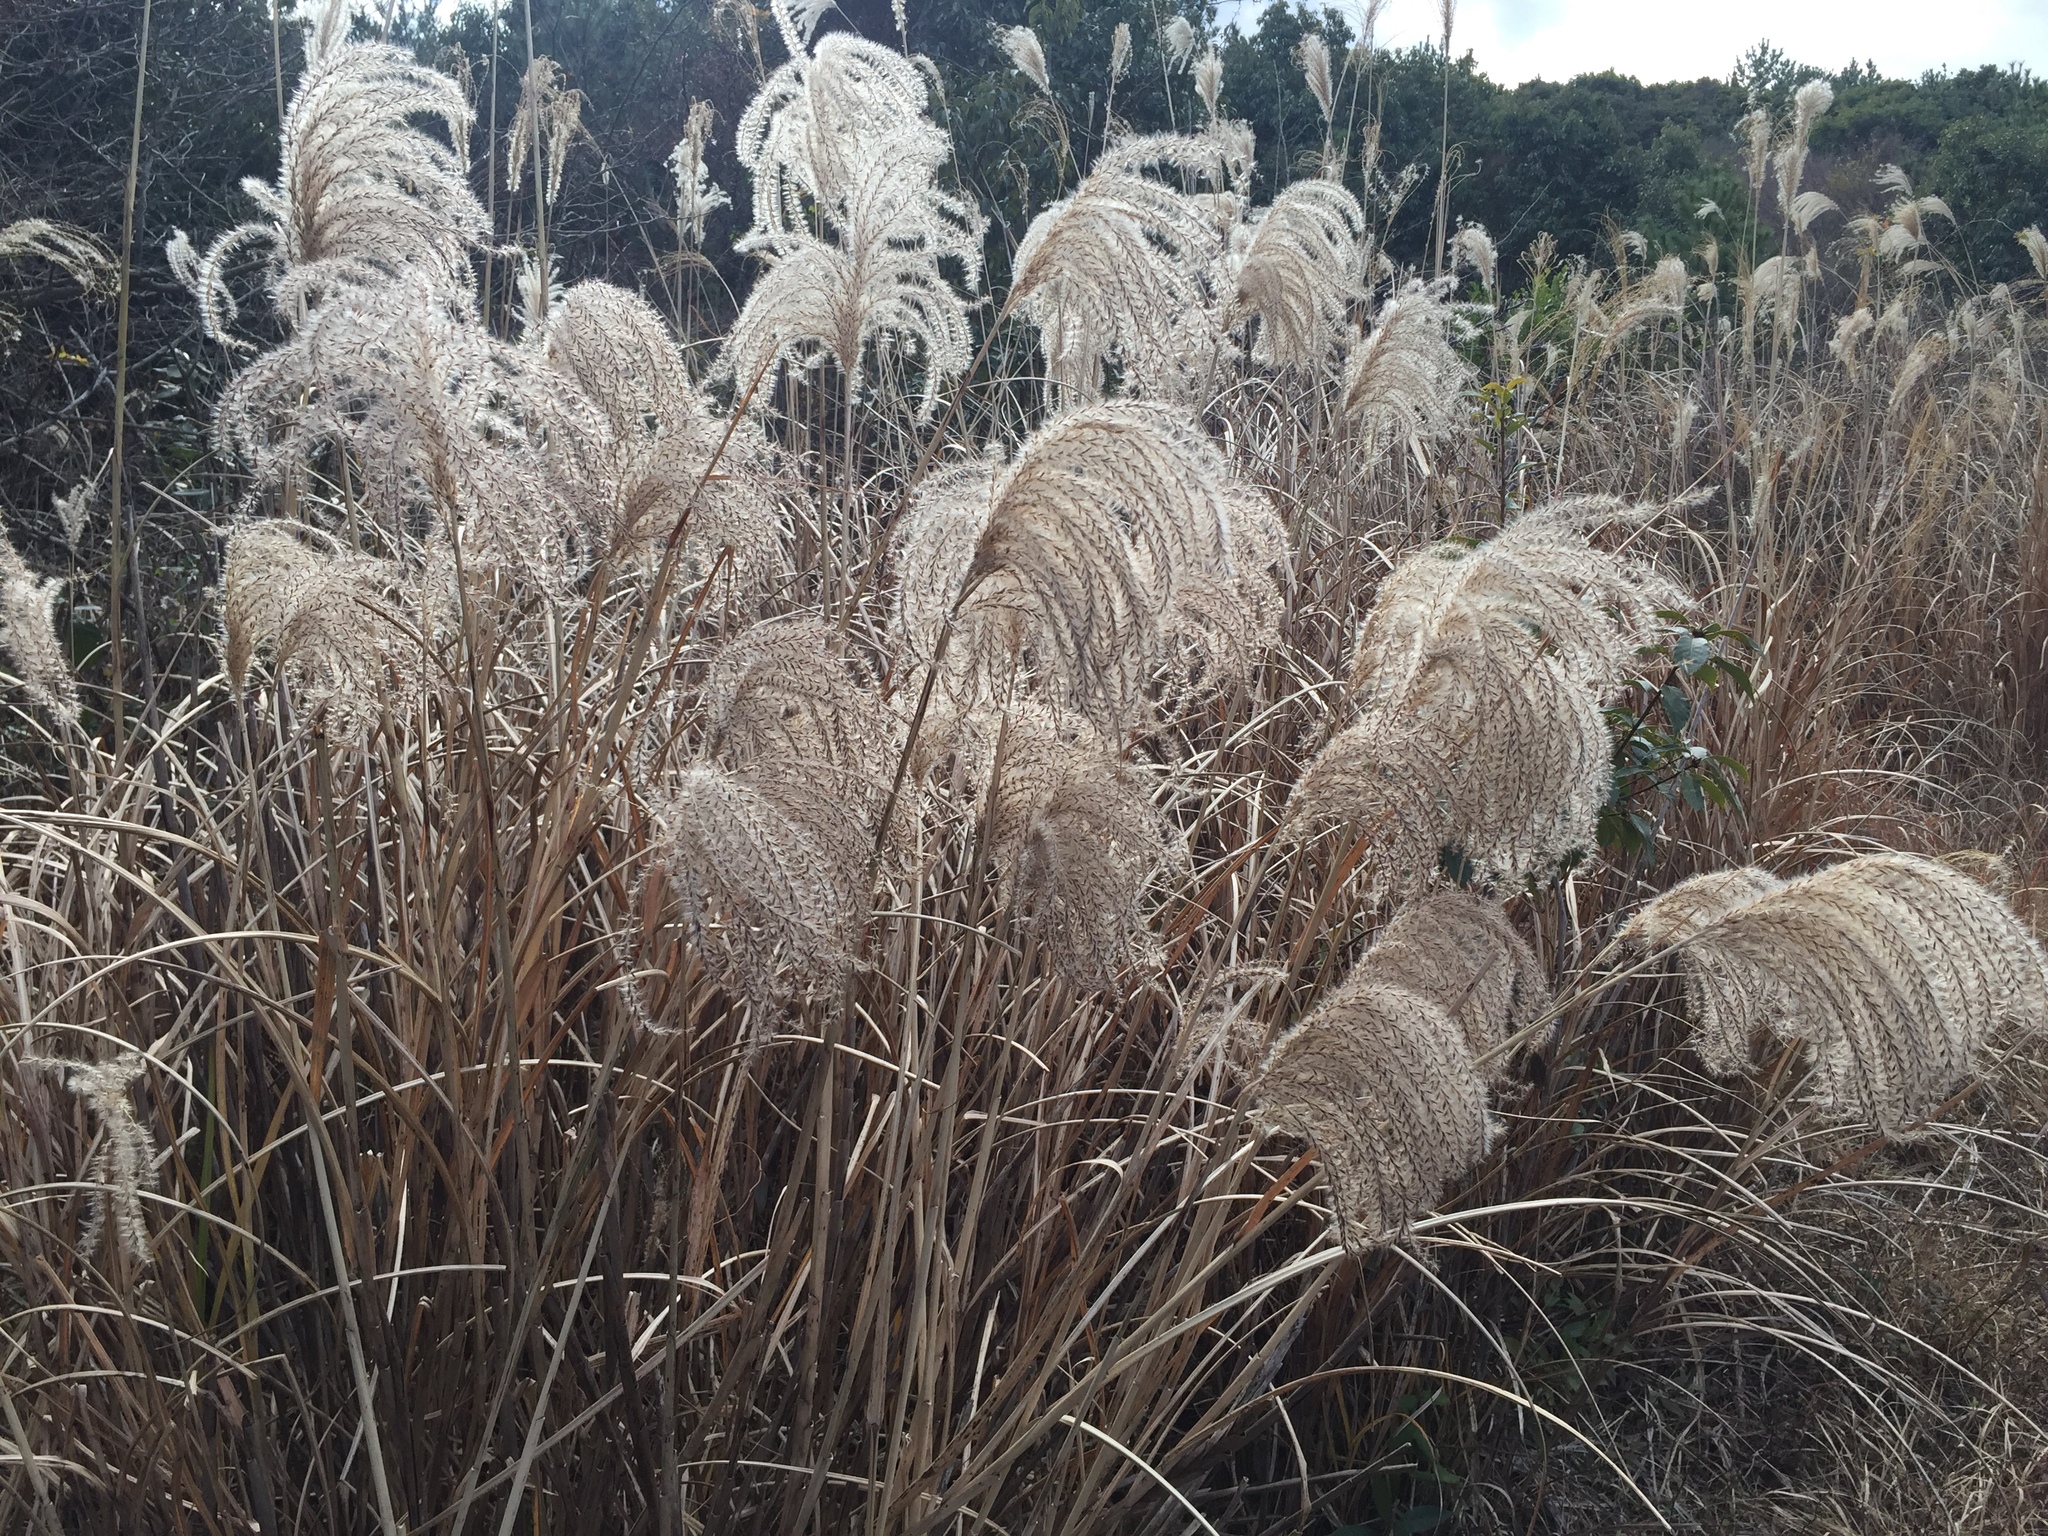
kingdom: Plantae
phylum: Tracheophyta
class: Liliopsida
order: Poales
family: Poaceae
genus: Miscanthus
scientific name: Miscanthus sinensis
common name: Chinese silvergrass
